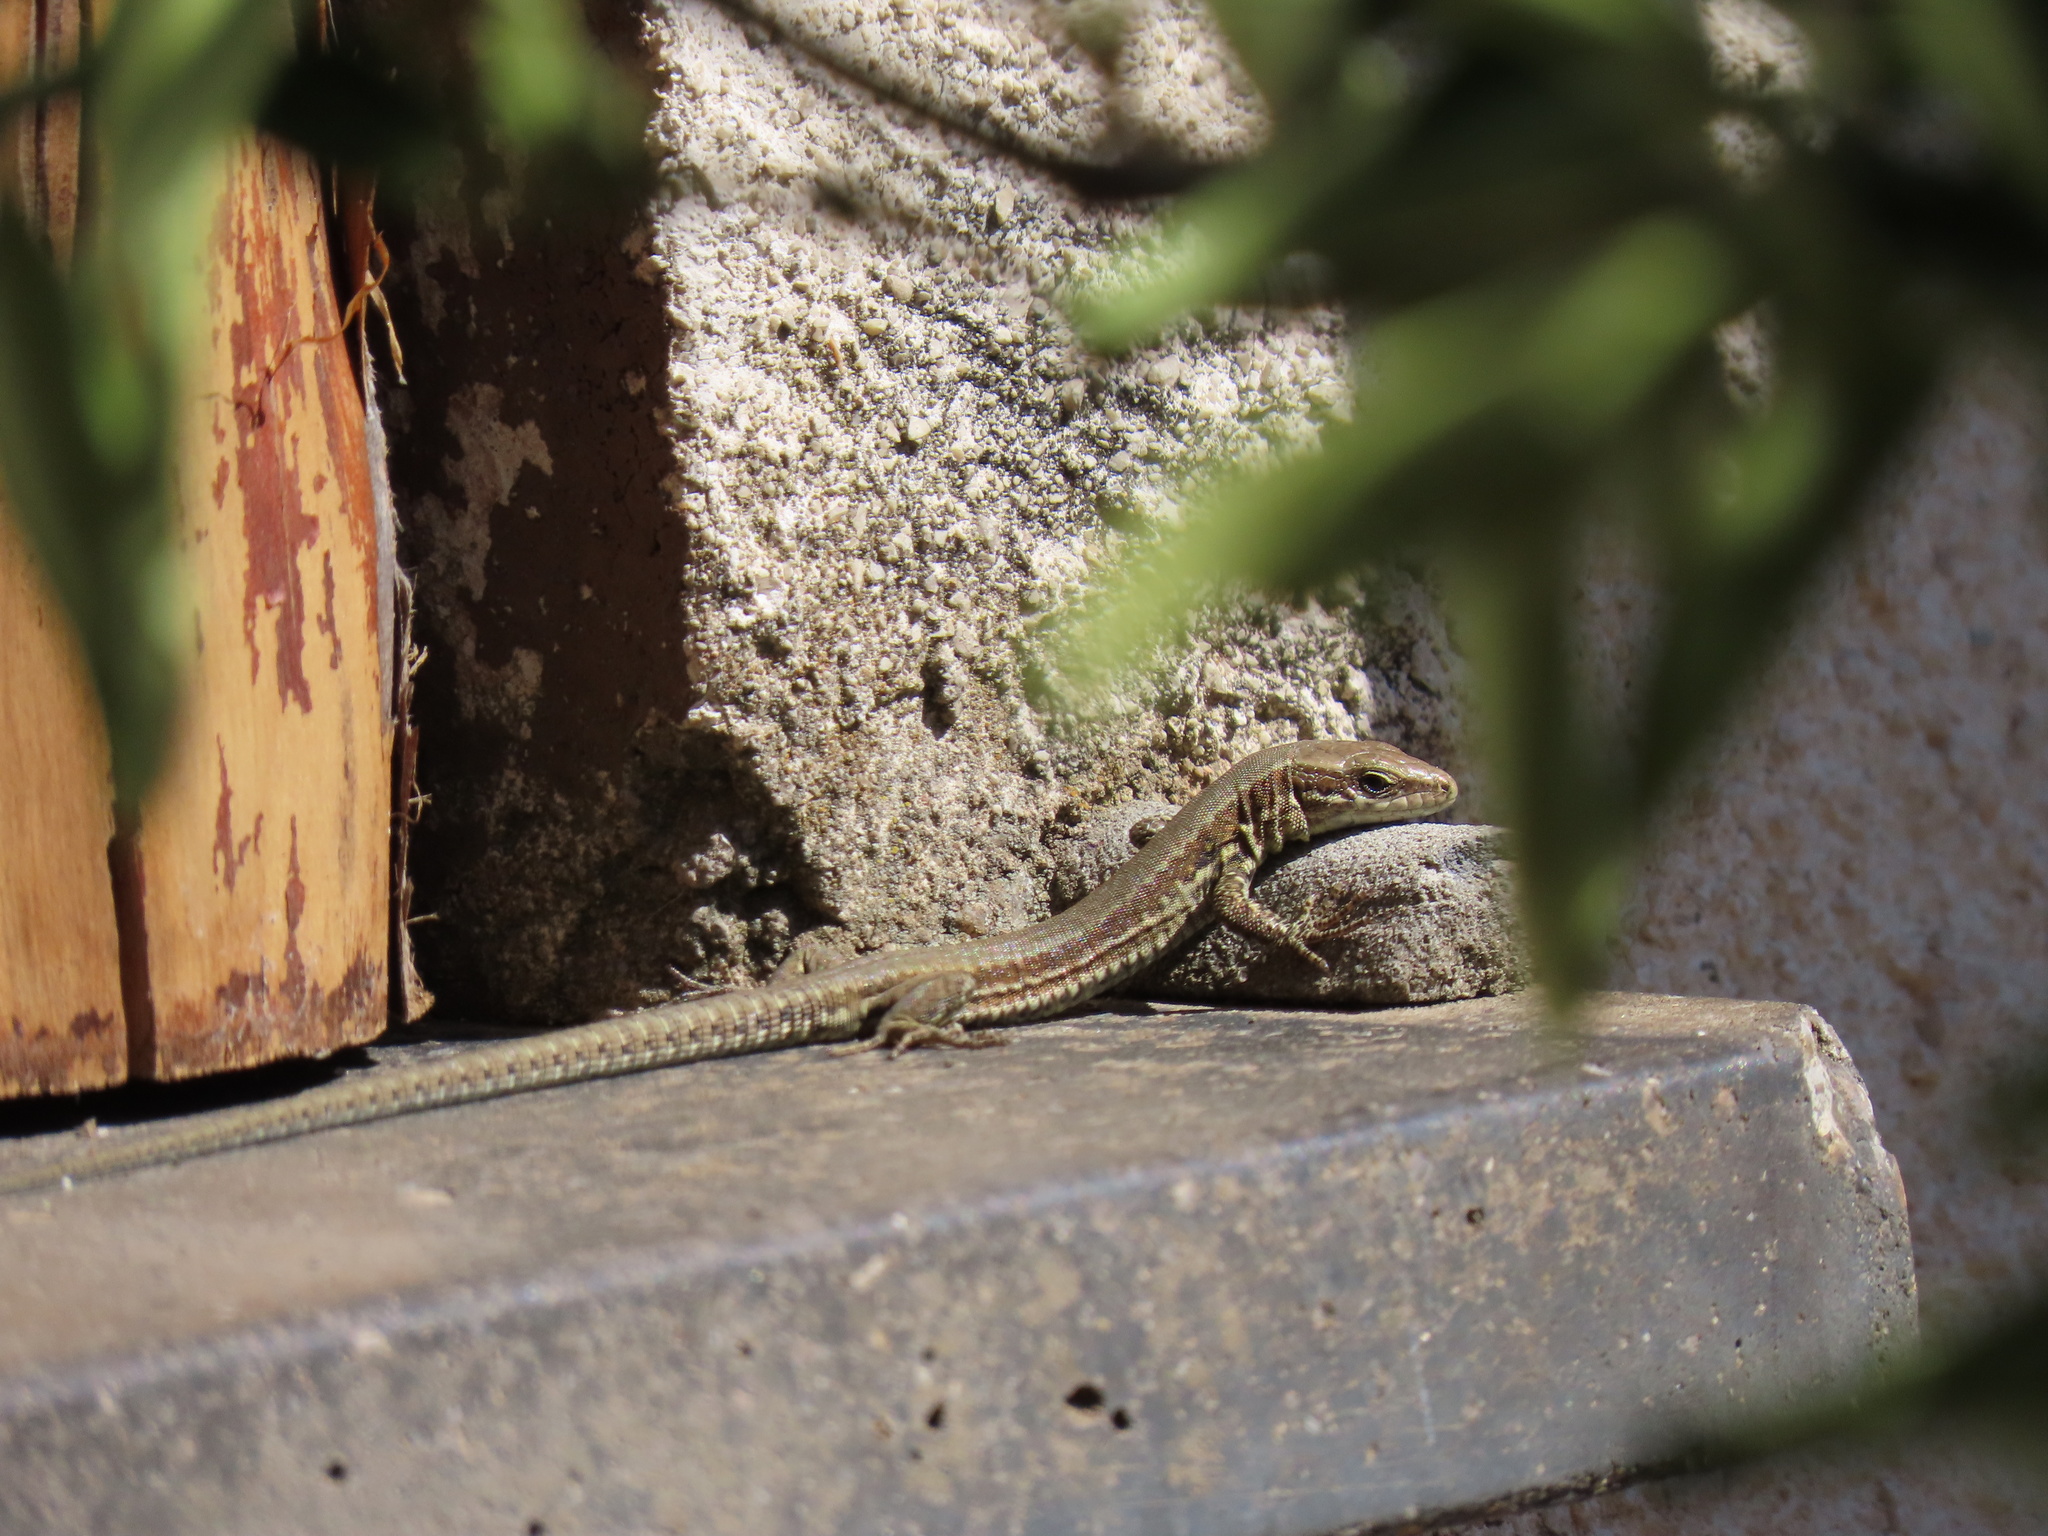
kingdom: Animalia
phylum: Chordata
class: Squamata
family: Lacertidae
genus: Podarcis
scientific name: Podarcis muralis
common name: Common wall lizard
